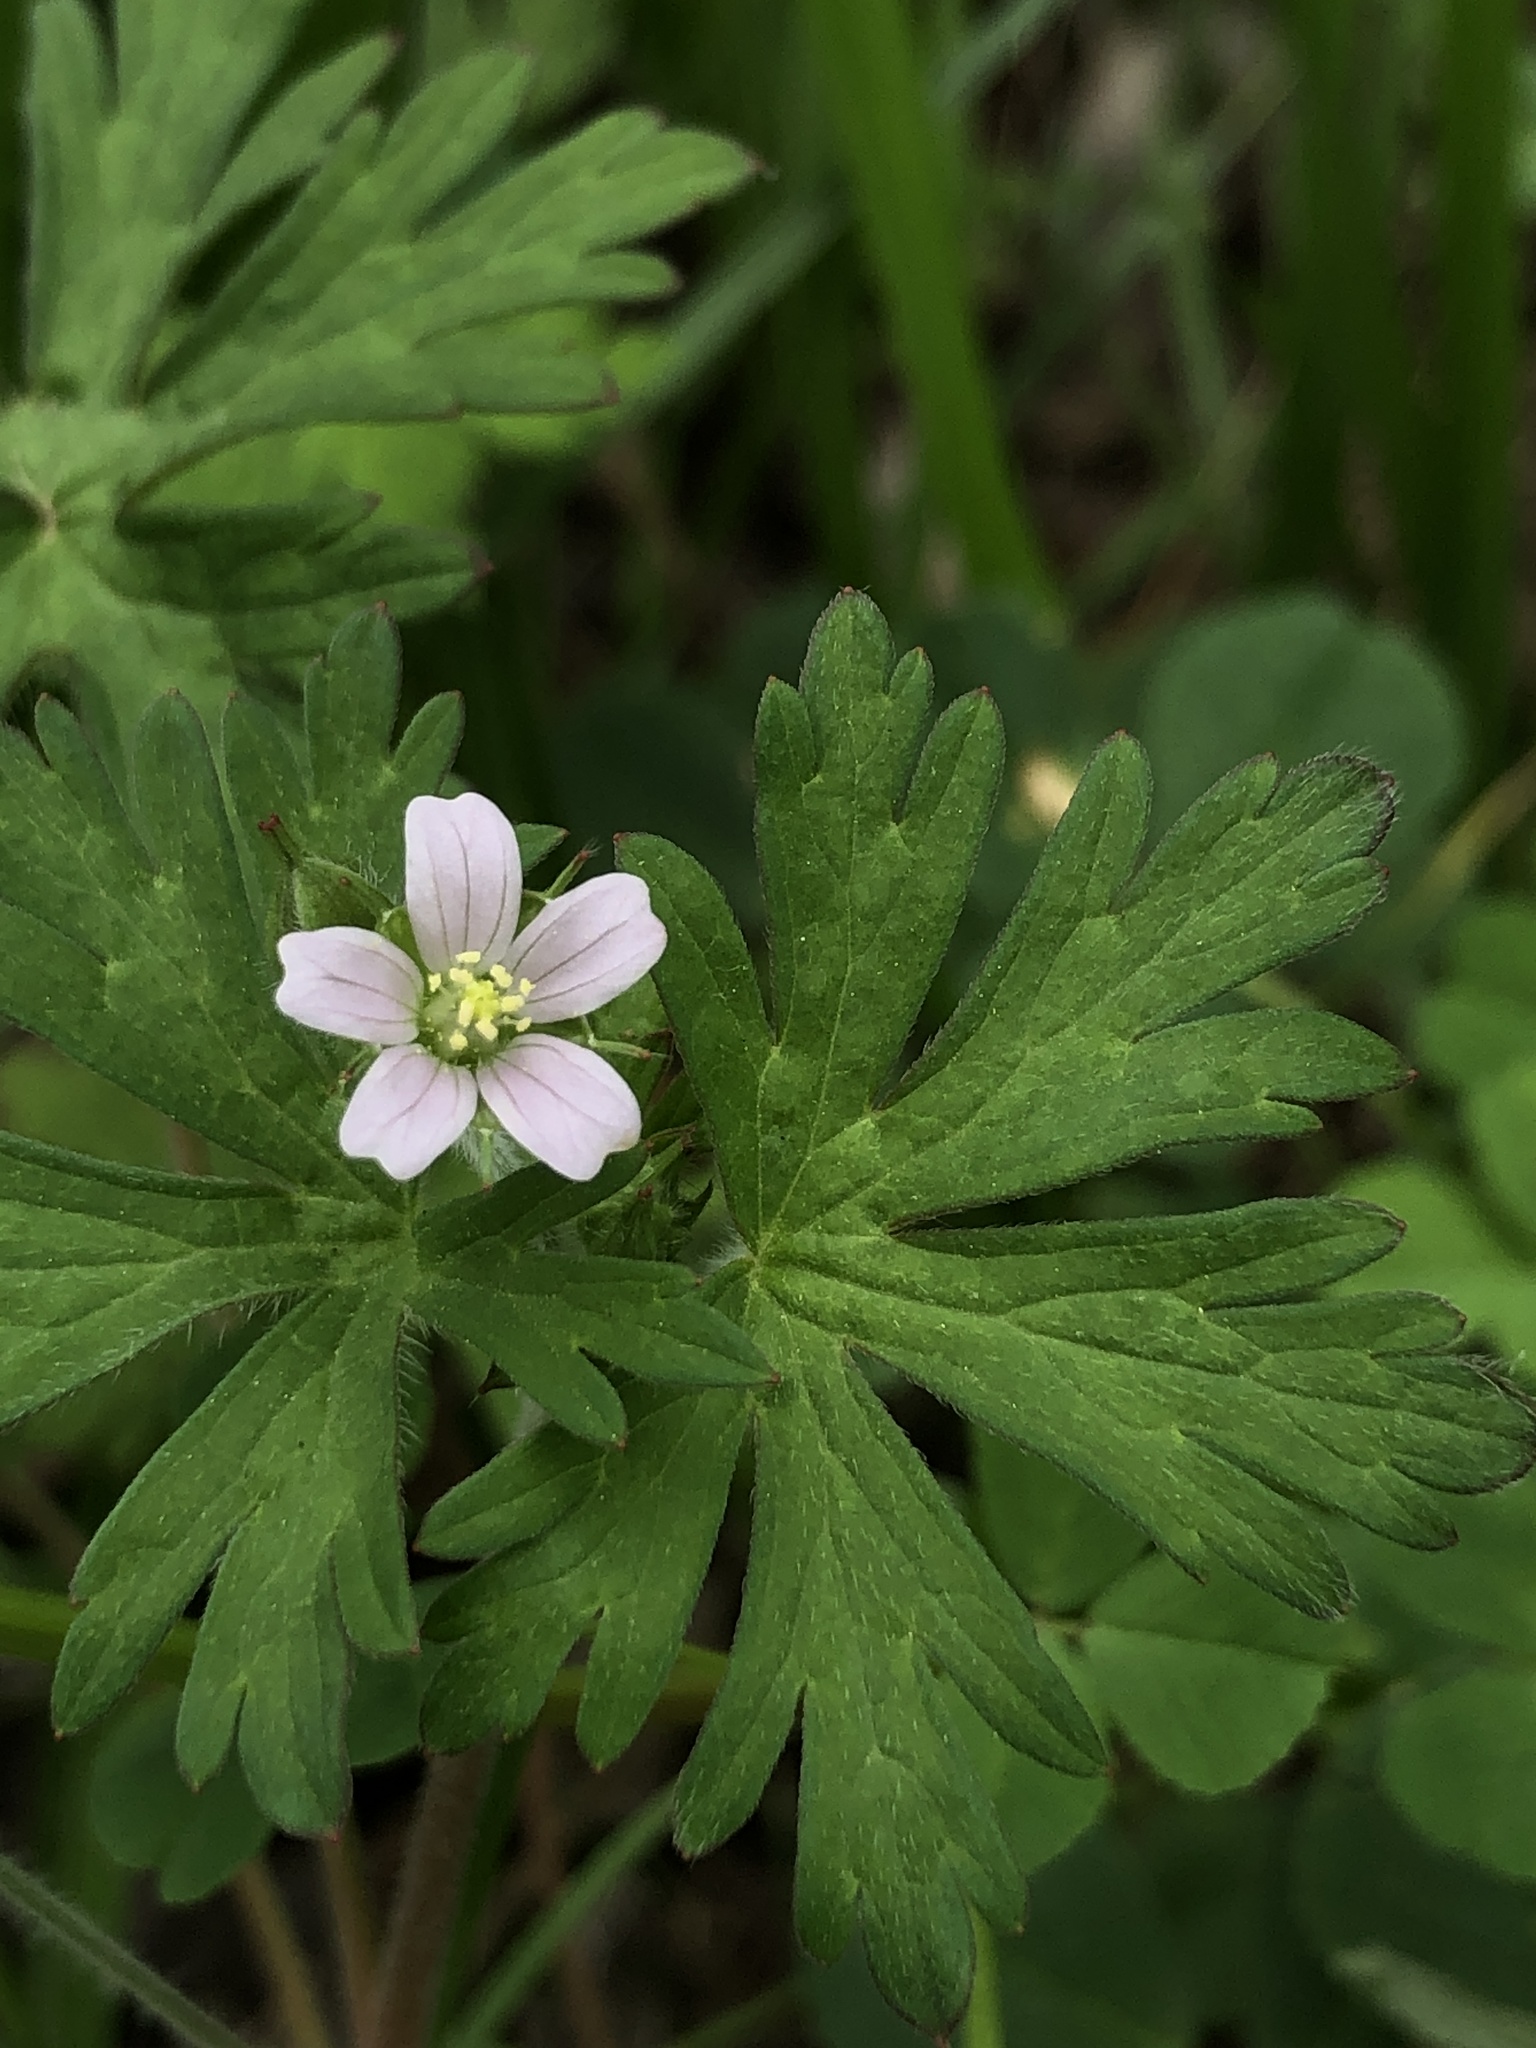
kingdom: Plantae
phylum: Tracheophyta
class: Magnoliopsida
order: Geraniales
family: Geraniaceae
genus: Geranium
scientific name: Geranium carolinianum
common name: Carolina crane's-bill
